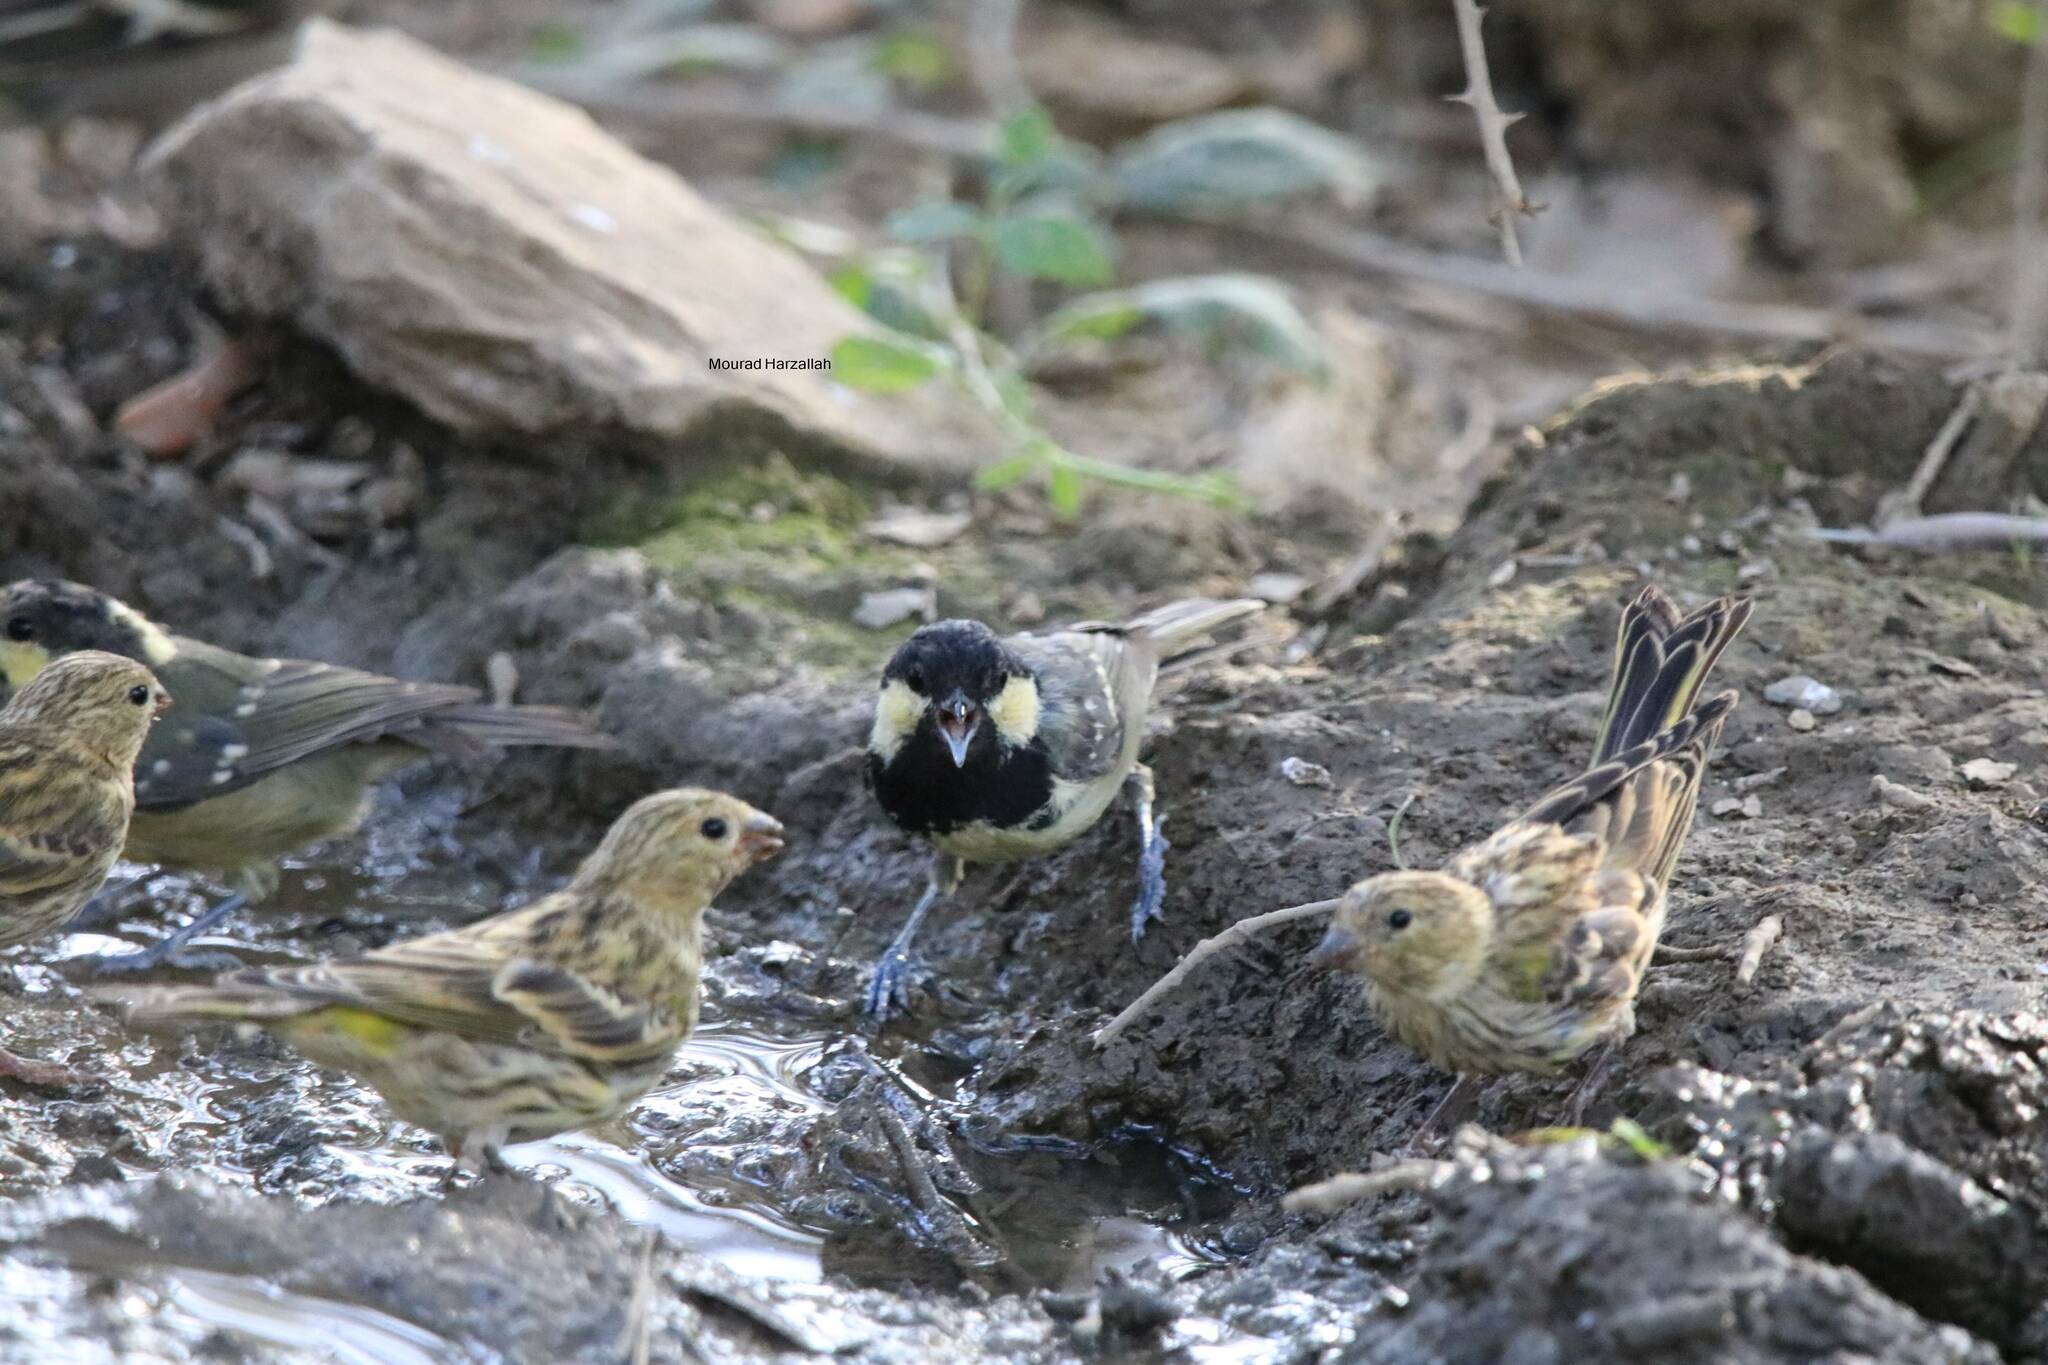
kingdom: Animalia
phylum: Chordata
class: Aves
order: Passeriformes
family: Fringillidae
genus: Serinus
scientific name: Serinus serinus
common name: European serin
